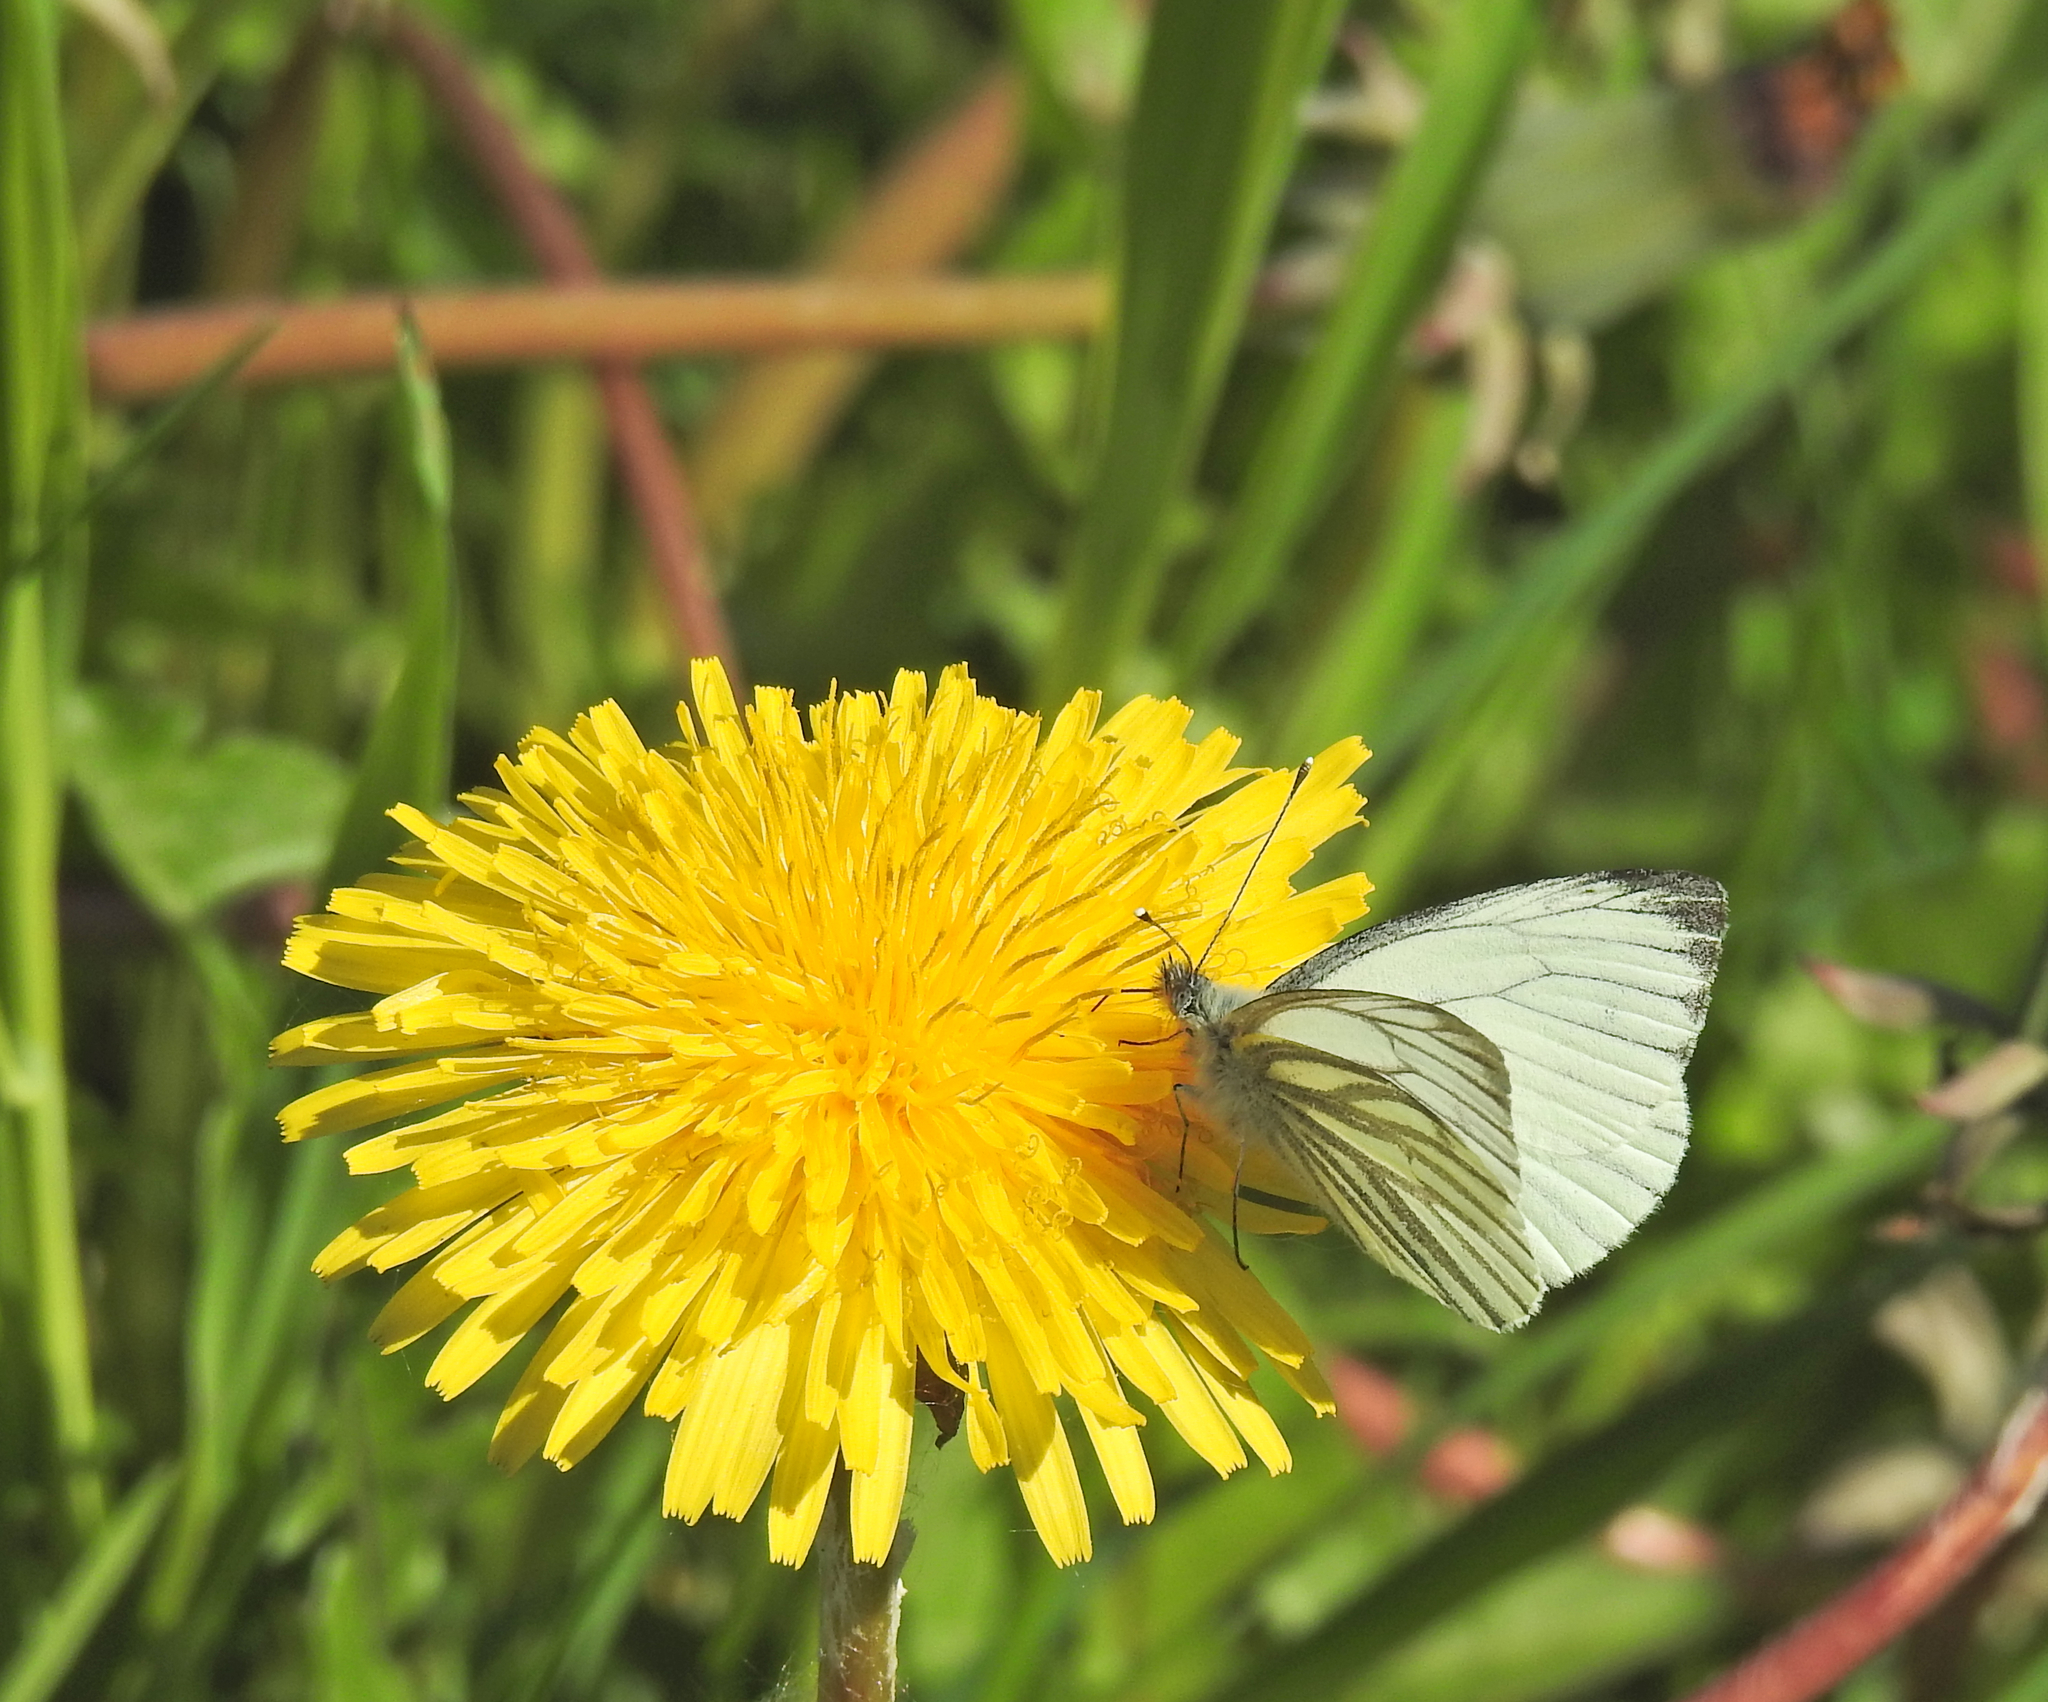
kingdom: Animalia
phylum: Arthropoda
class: Insecta
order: Lepidoptera
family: Pieridae
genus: Pieris
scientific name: Pieris napi
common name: Green-veined white
